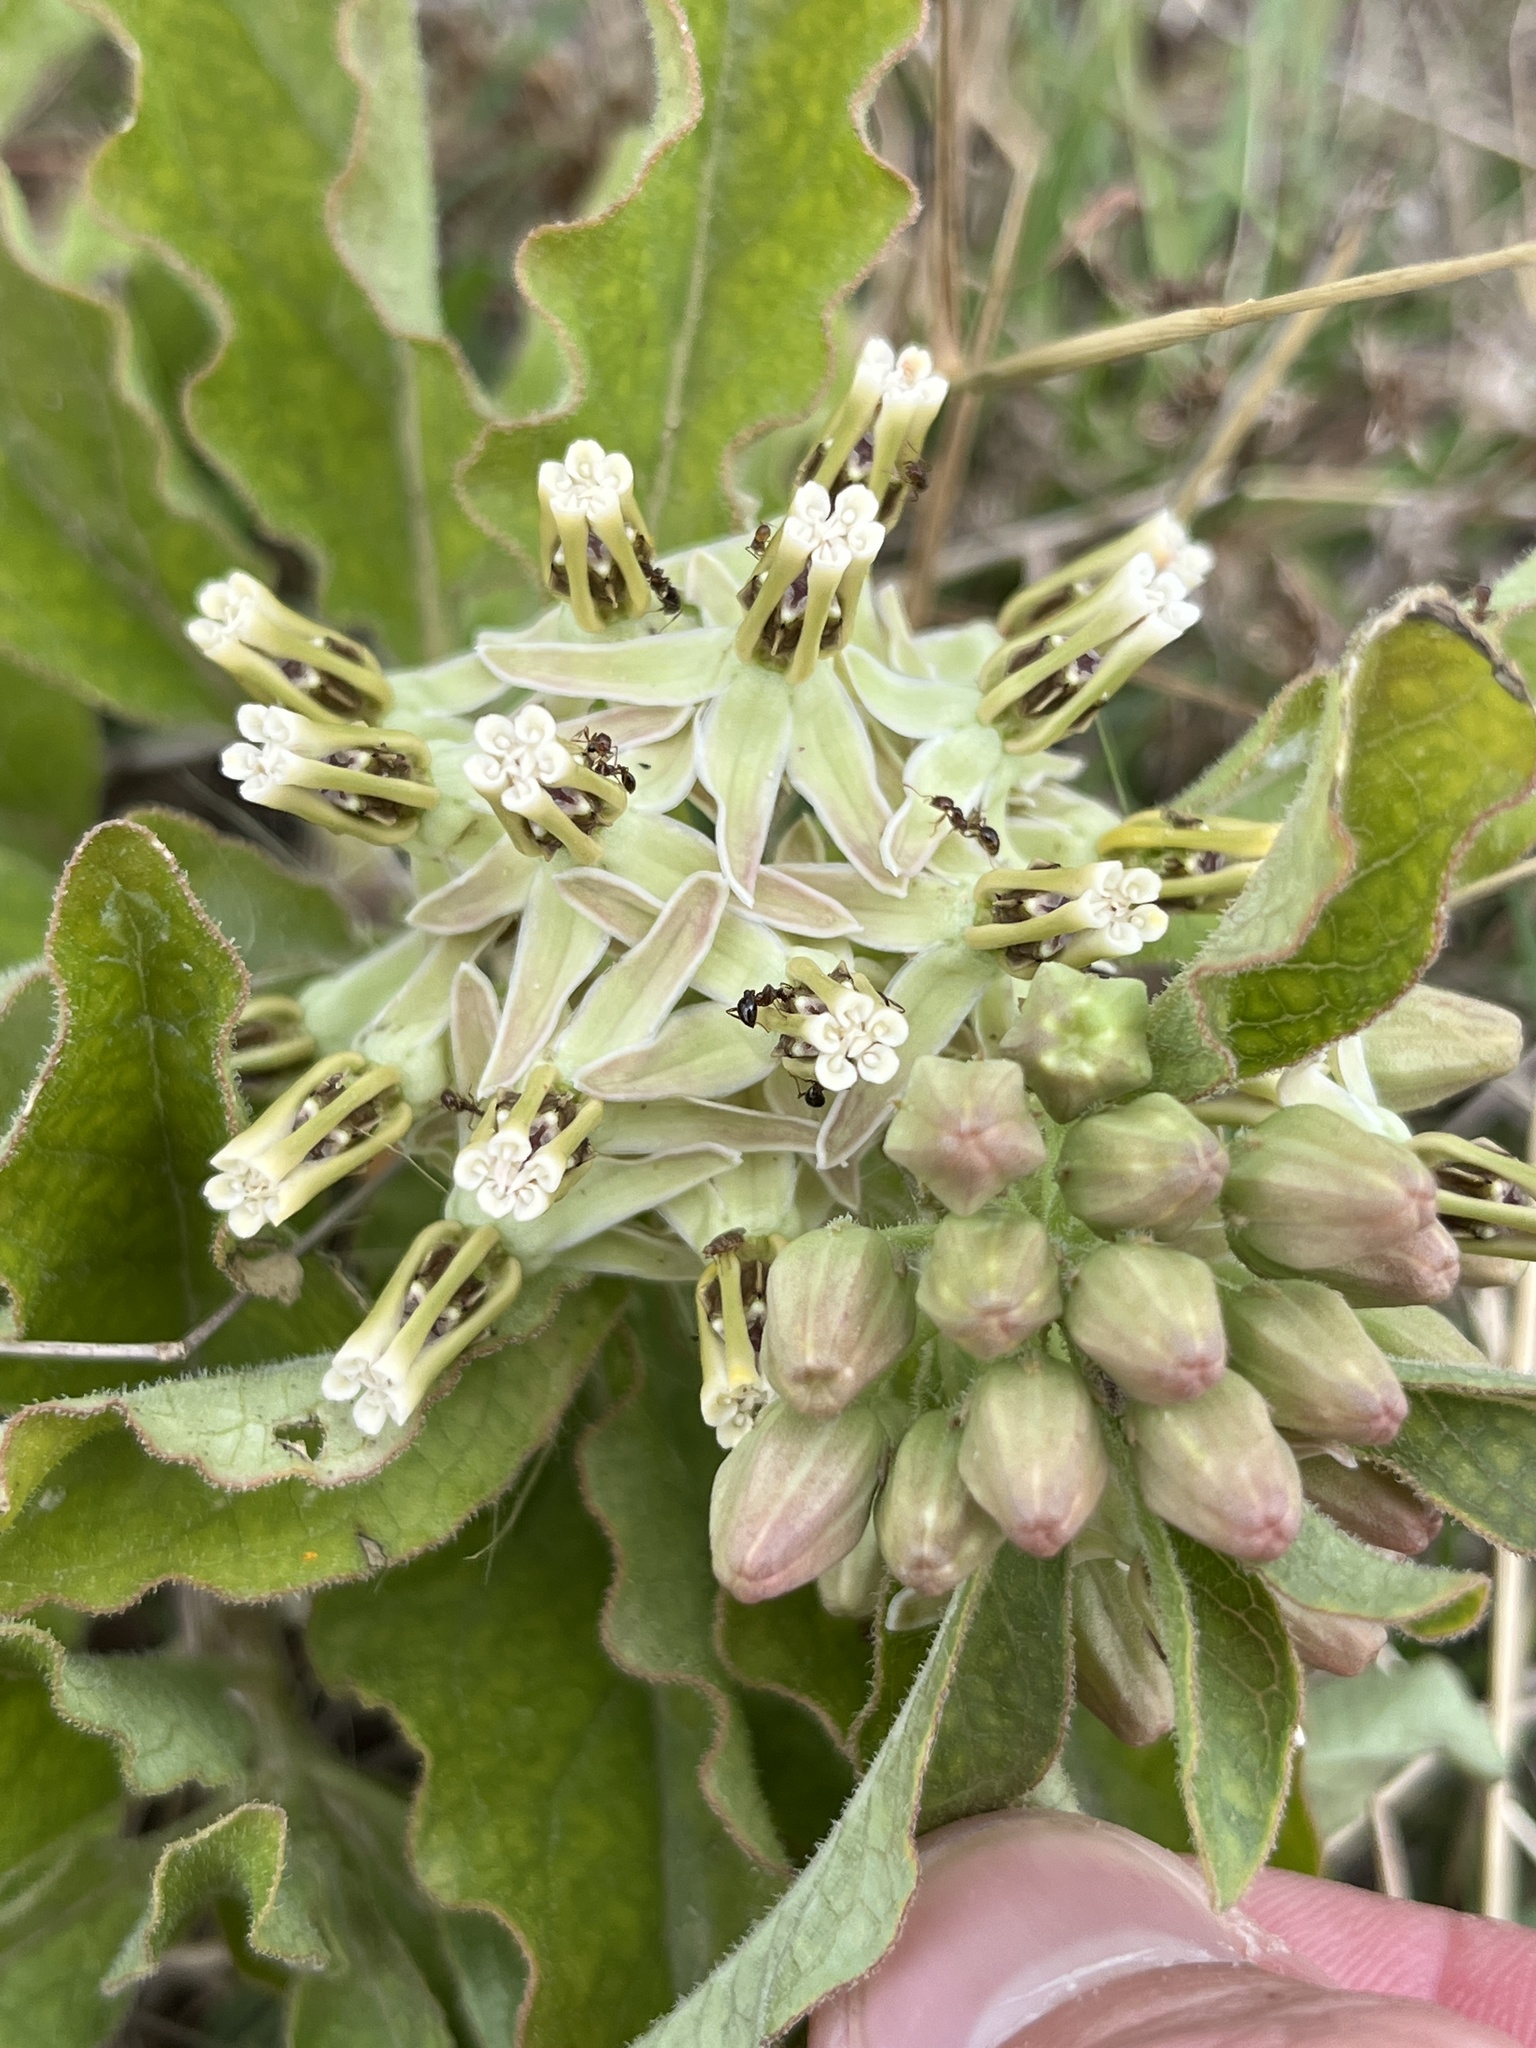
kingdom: Plantae
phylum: Tracheophyta
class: Magnoliopsida
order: Gentianales
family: Apocynaceae
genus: Asclepias
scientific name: Asclepias oenotheroides
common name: Zizotes milkweed
